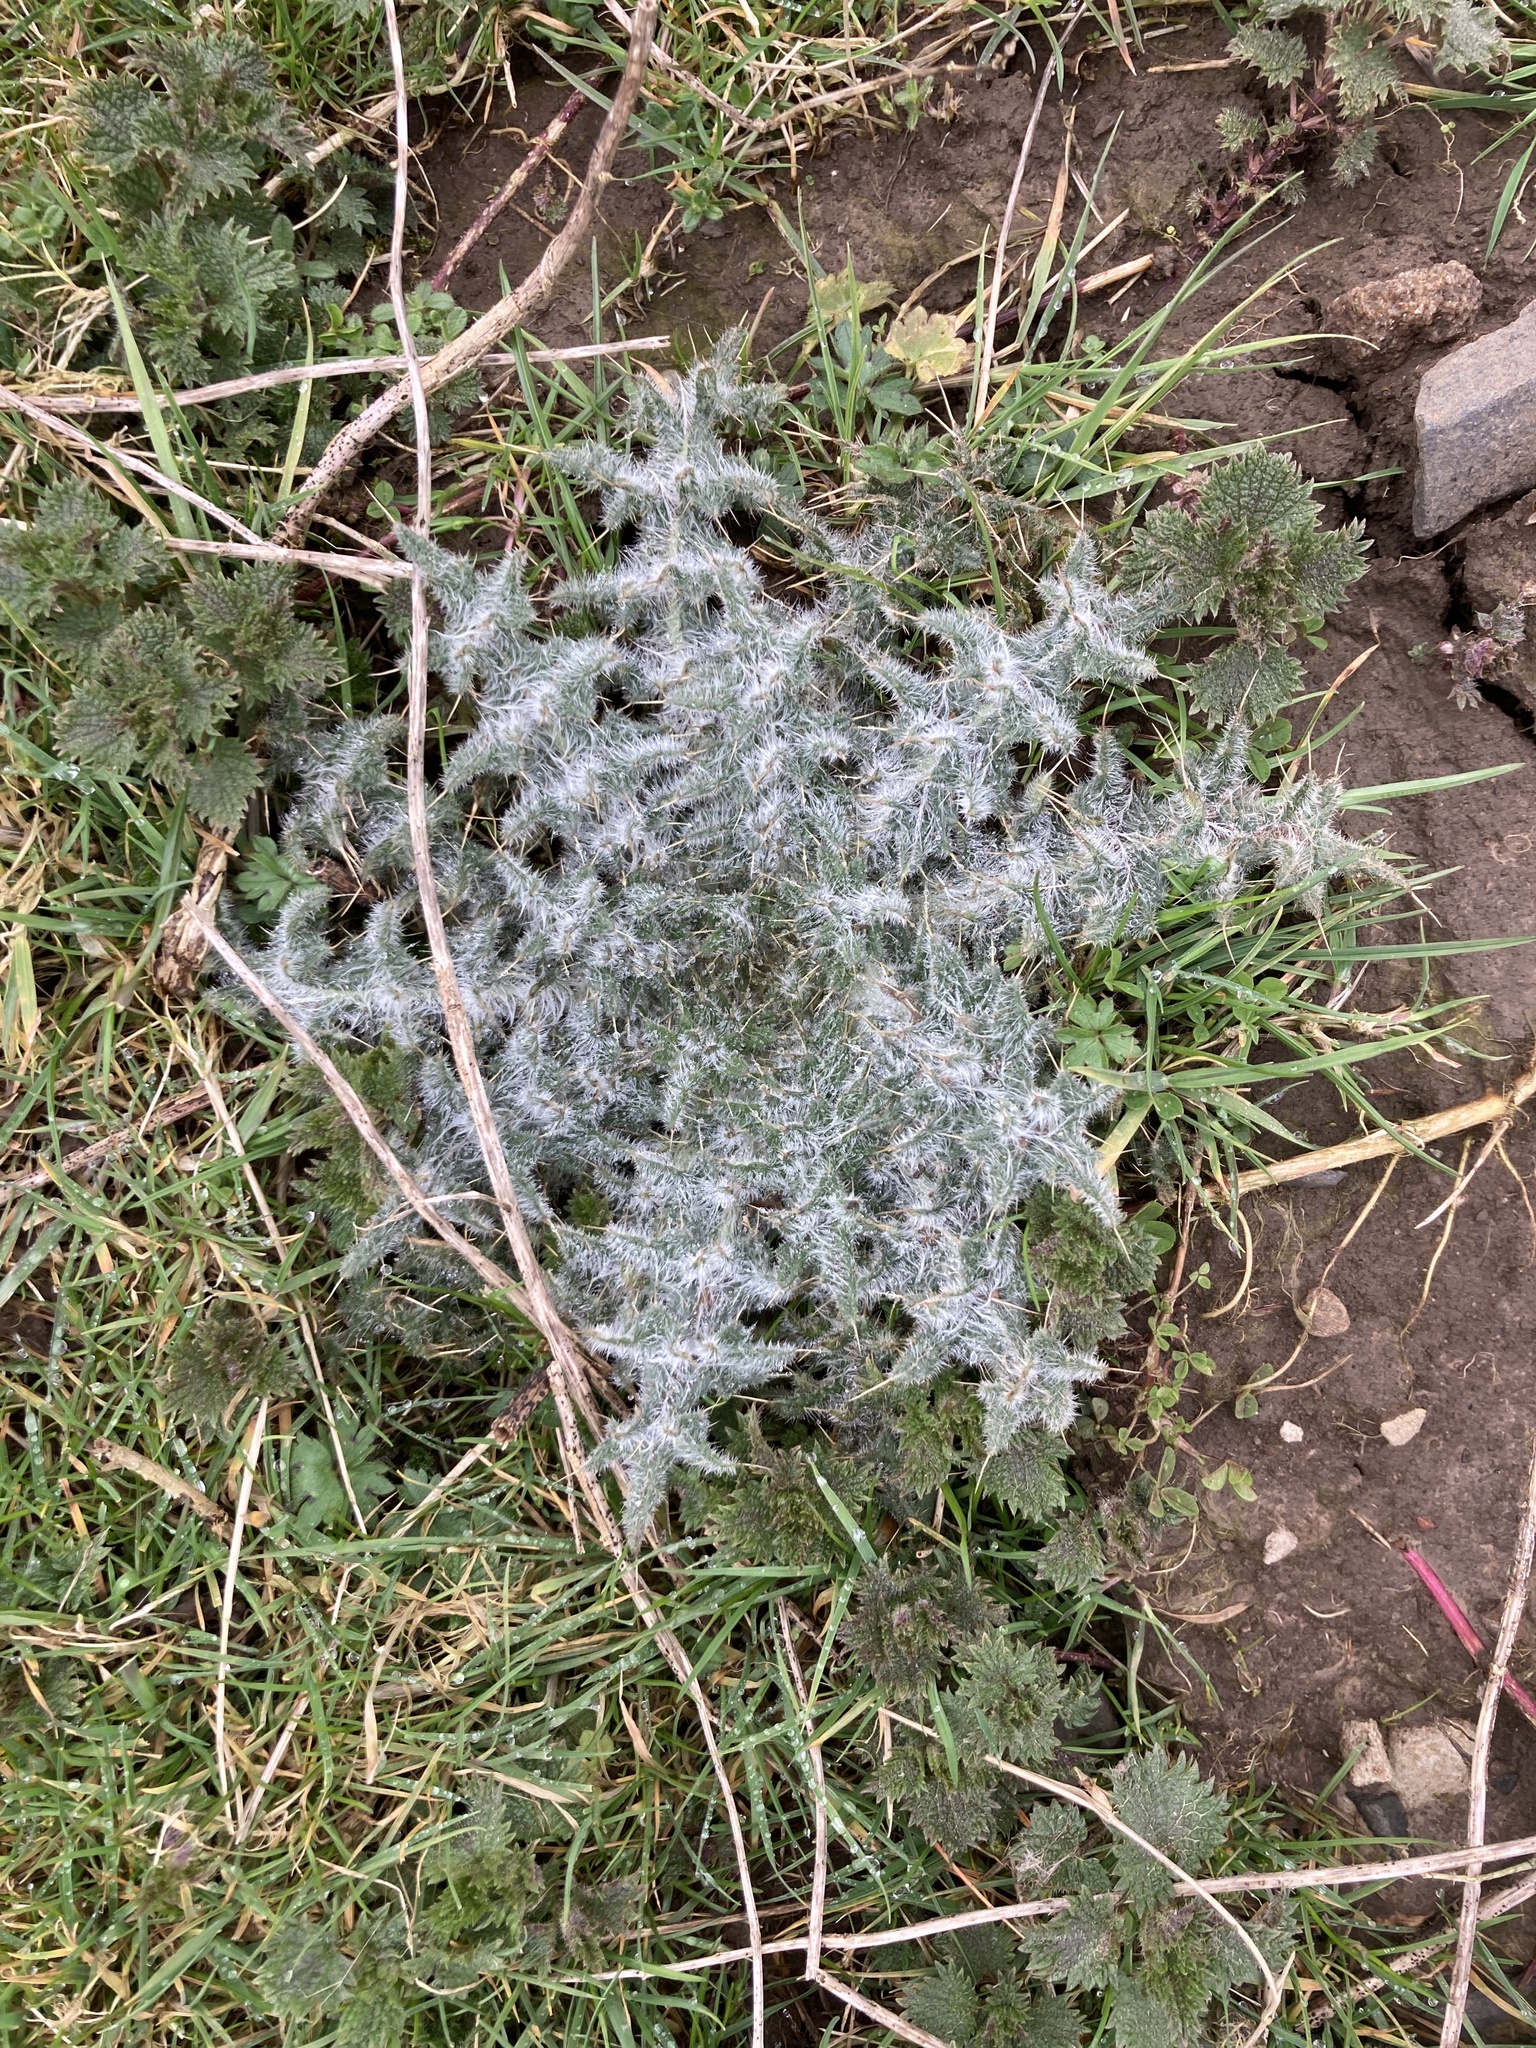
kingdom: Plantae
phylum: Tracheophyta
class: Magnoliopsida
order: Asterales
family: Asteraceae
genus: Cirsium
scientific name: Cirsium vulgare
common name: Bull thistle
